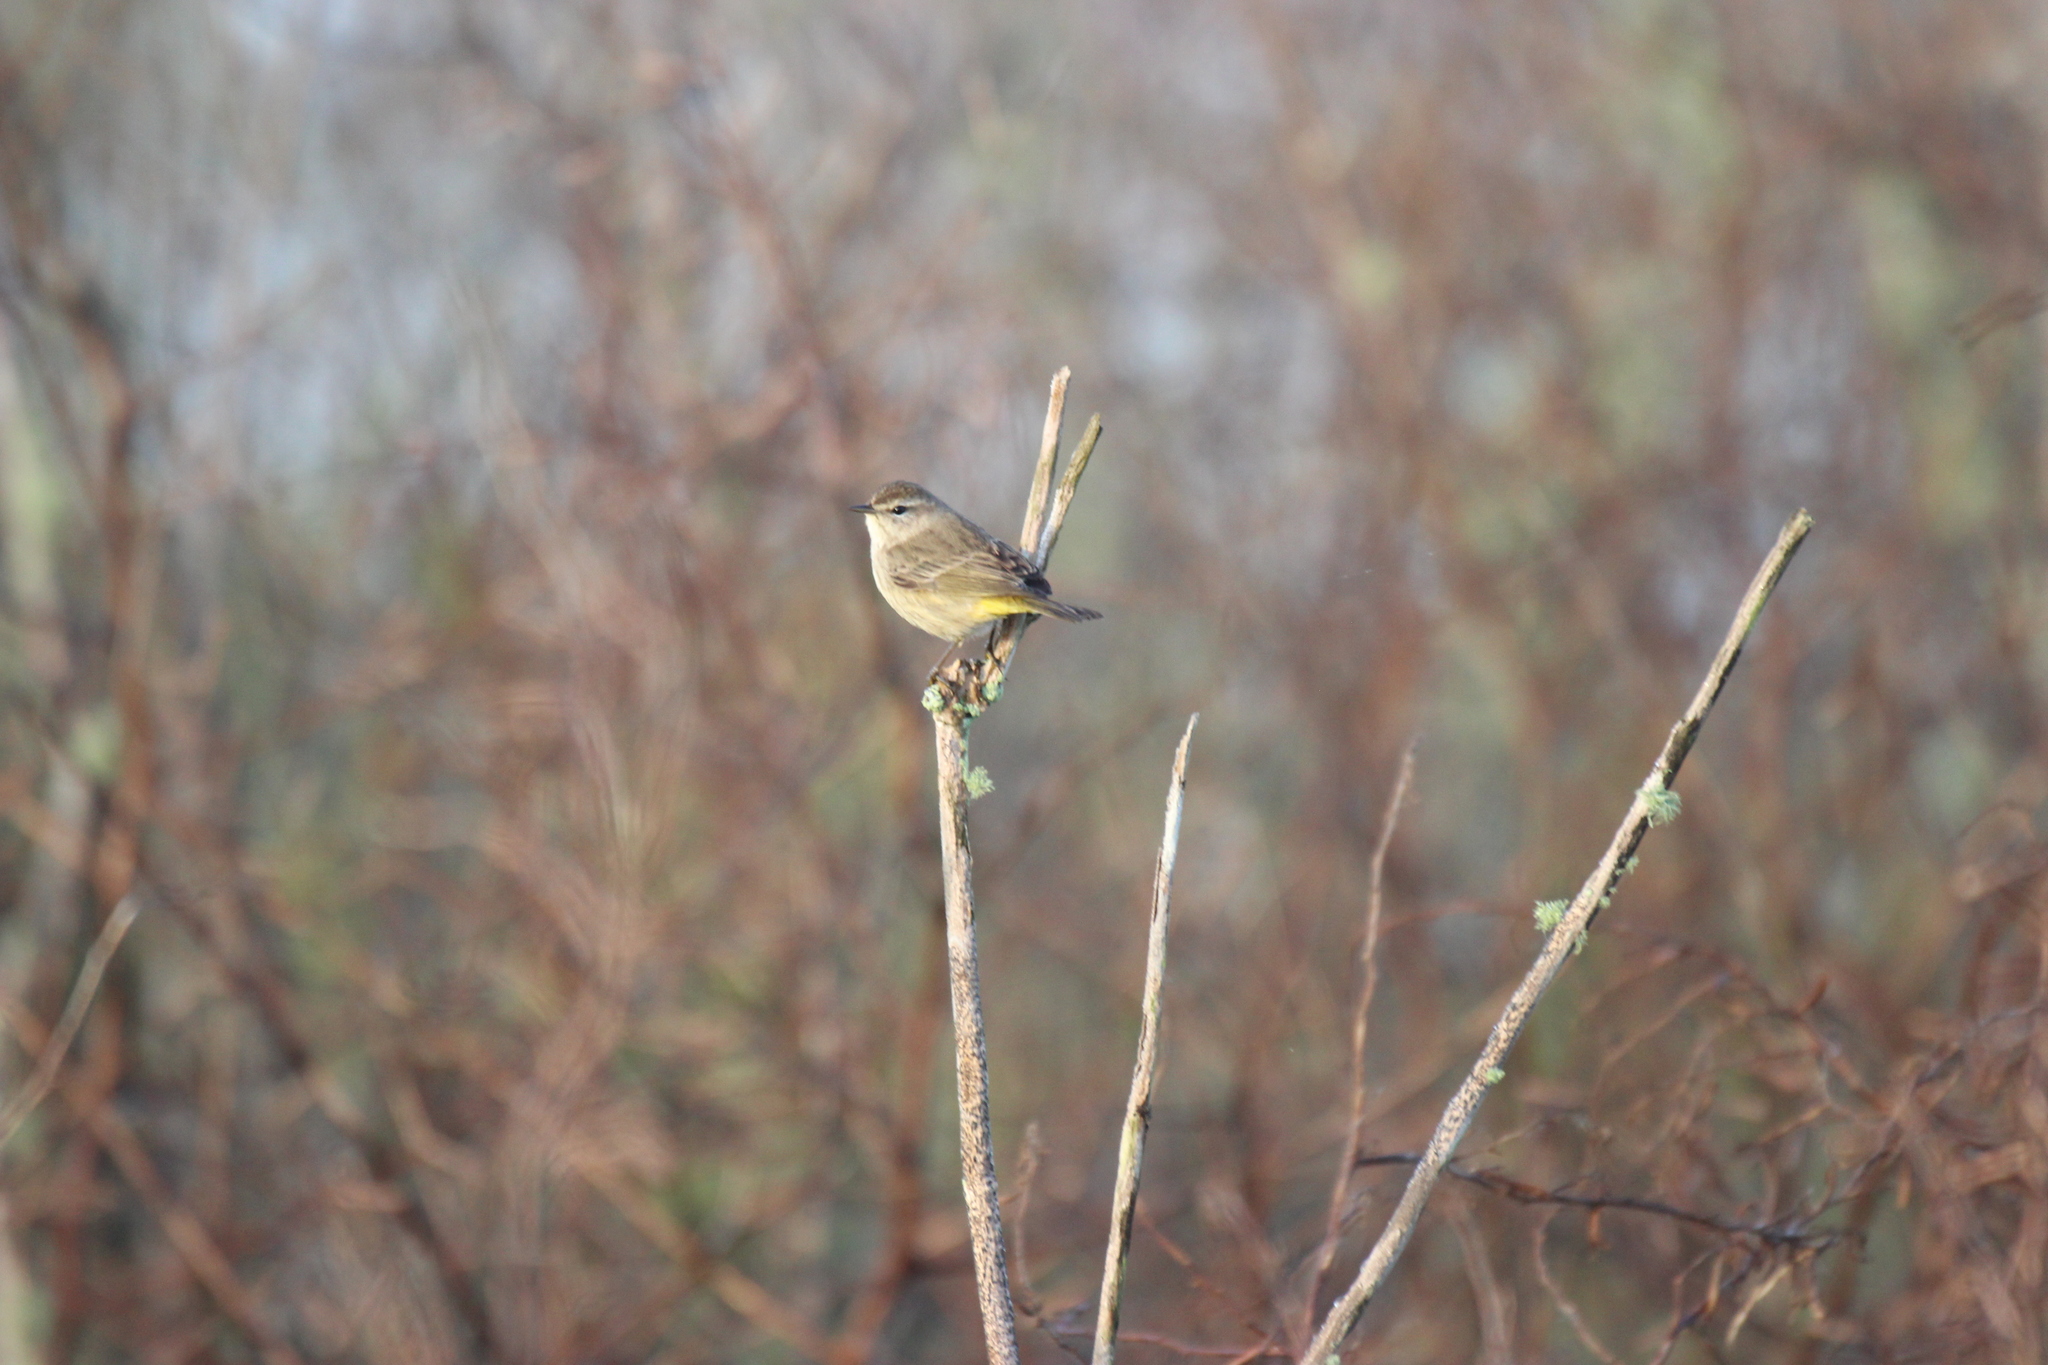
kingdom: Animalia
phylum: Chordata
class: Aves
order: Passeriformes
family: Parulidae
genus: Setophaga
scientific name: Setophaga palmarum
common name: Palm warbler
